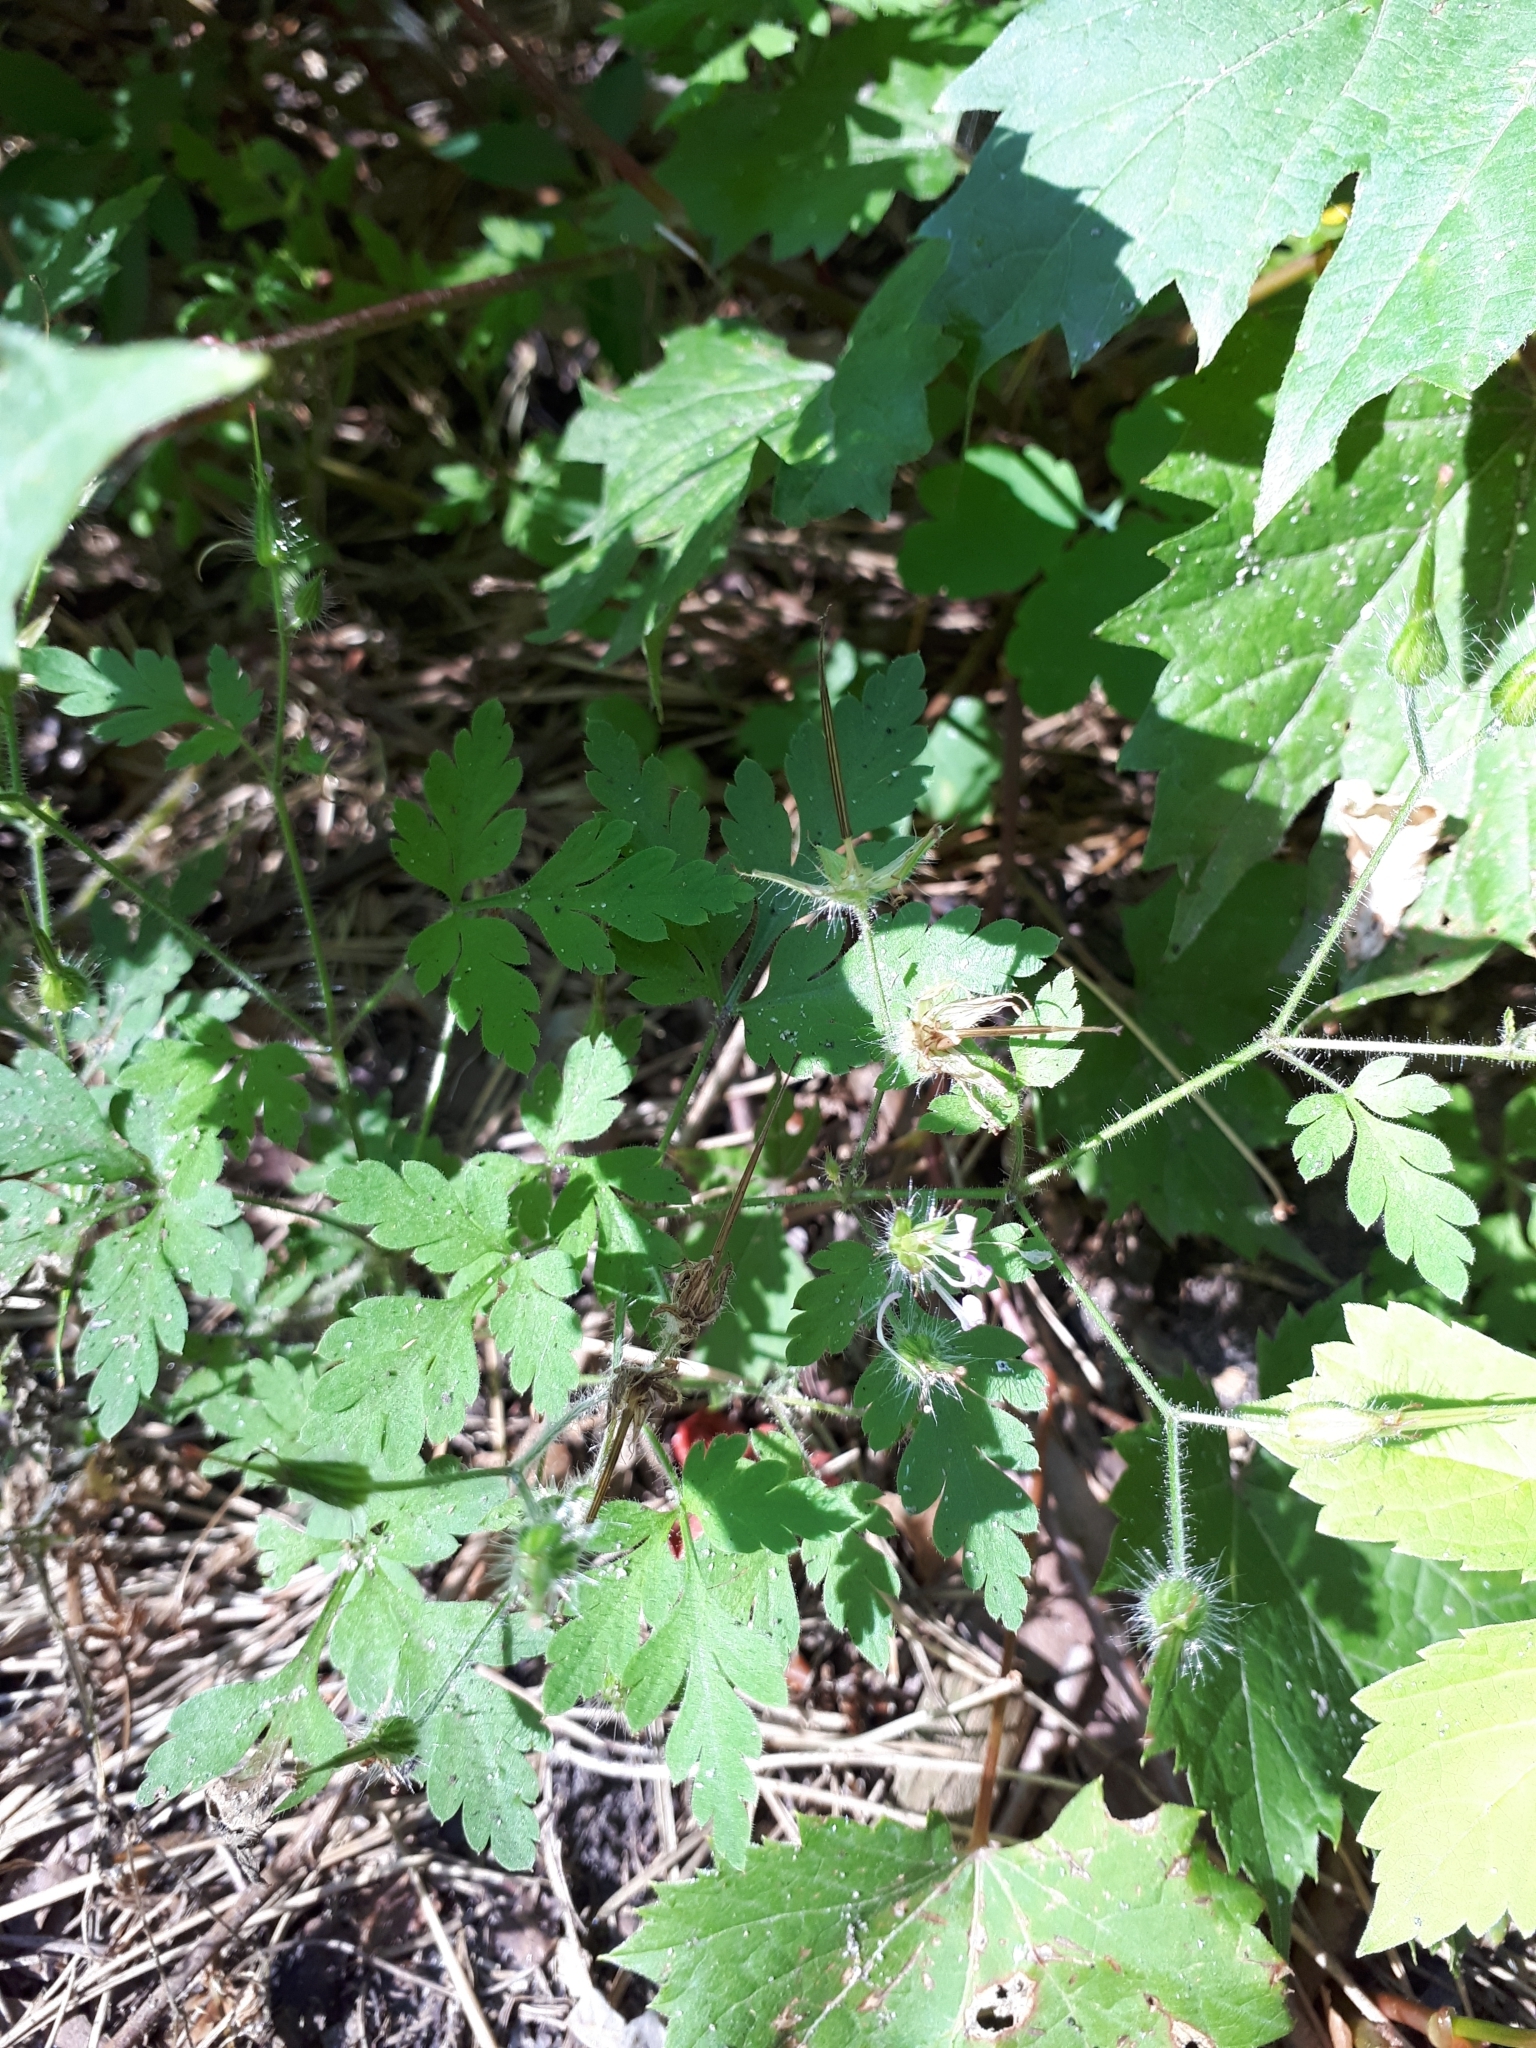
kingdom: Plantae
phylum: Tracheophyta
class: Magnoliopsida
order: Geraniales
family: Geraniaceae
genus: Geranium
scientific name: Geranium robertianum
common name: Herb-robert
